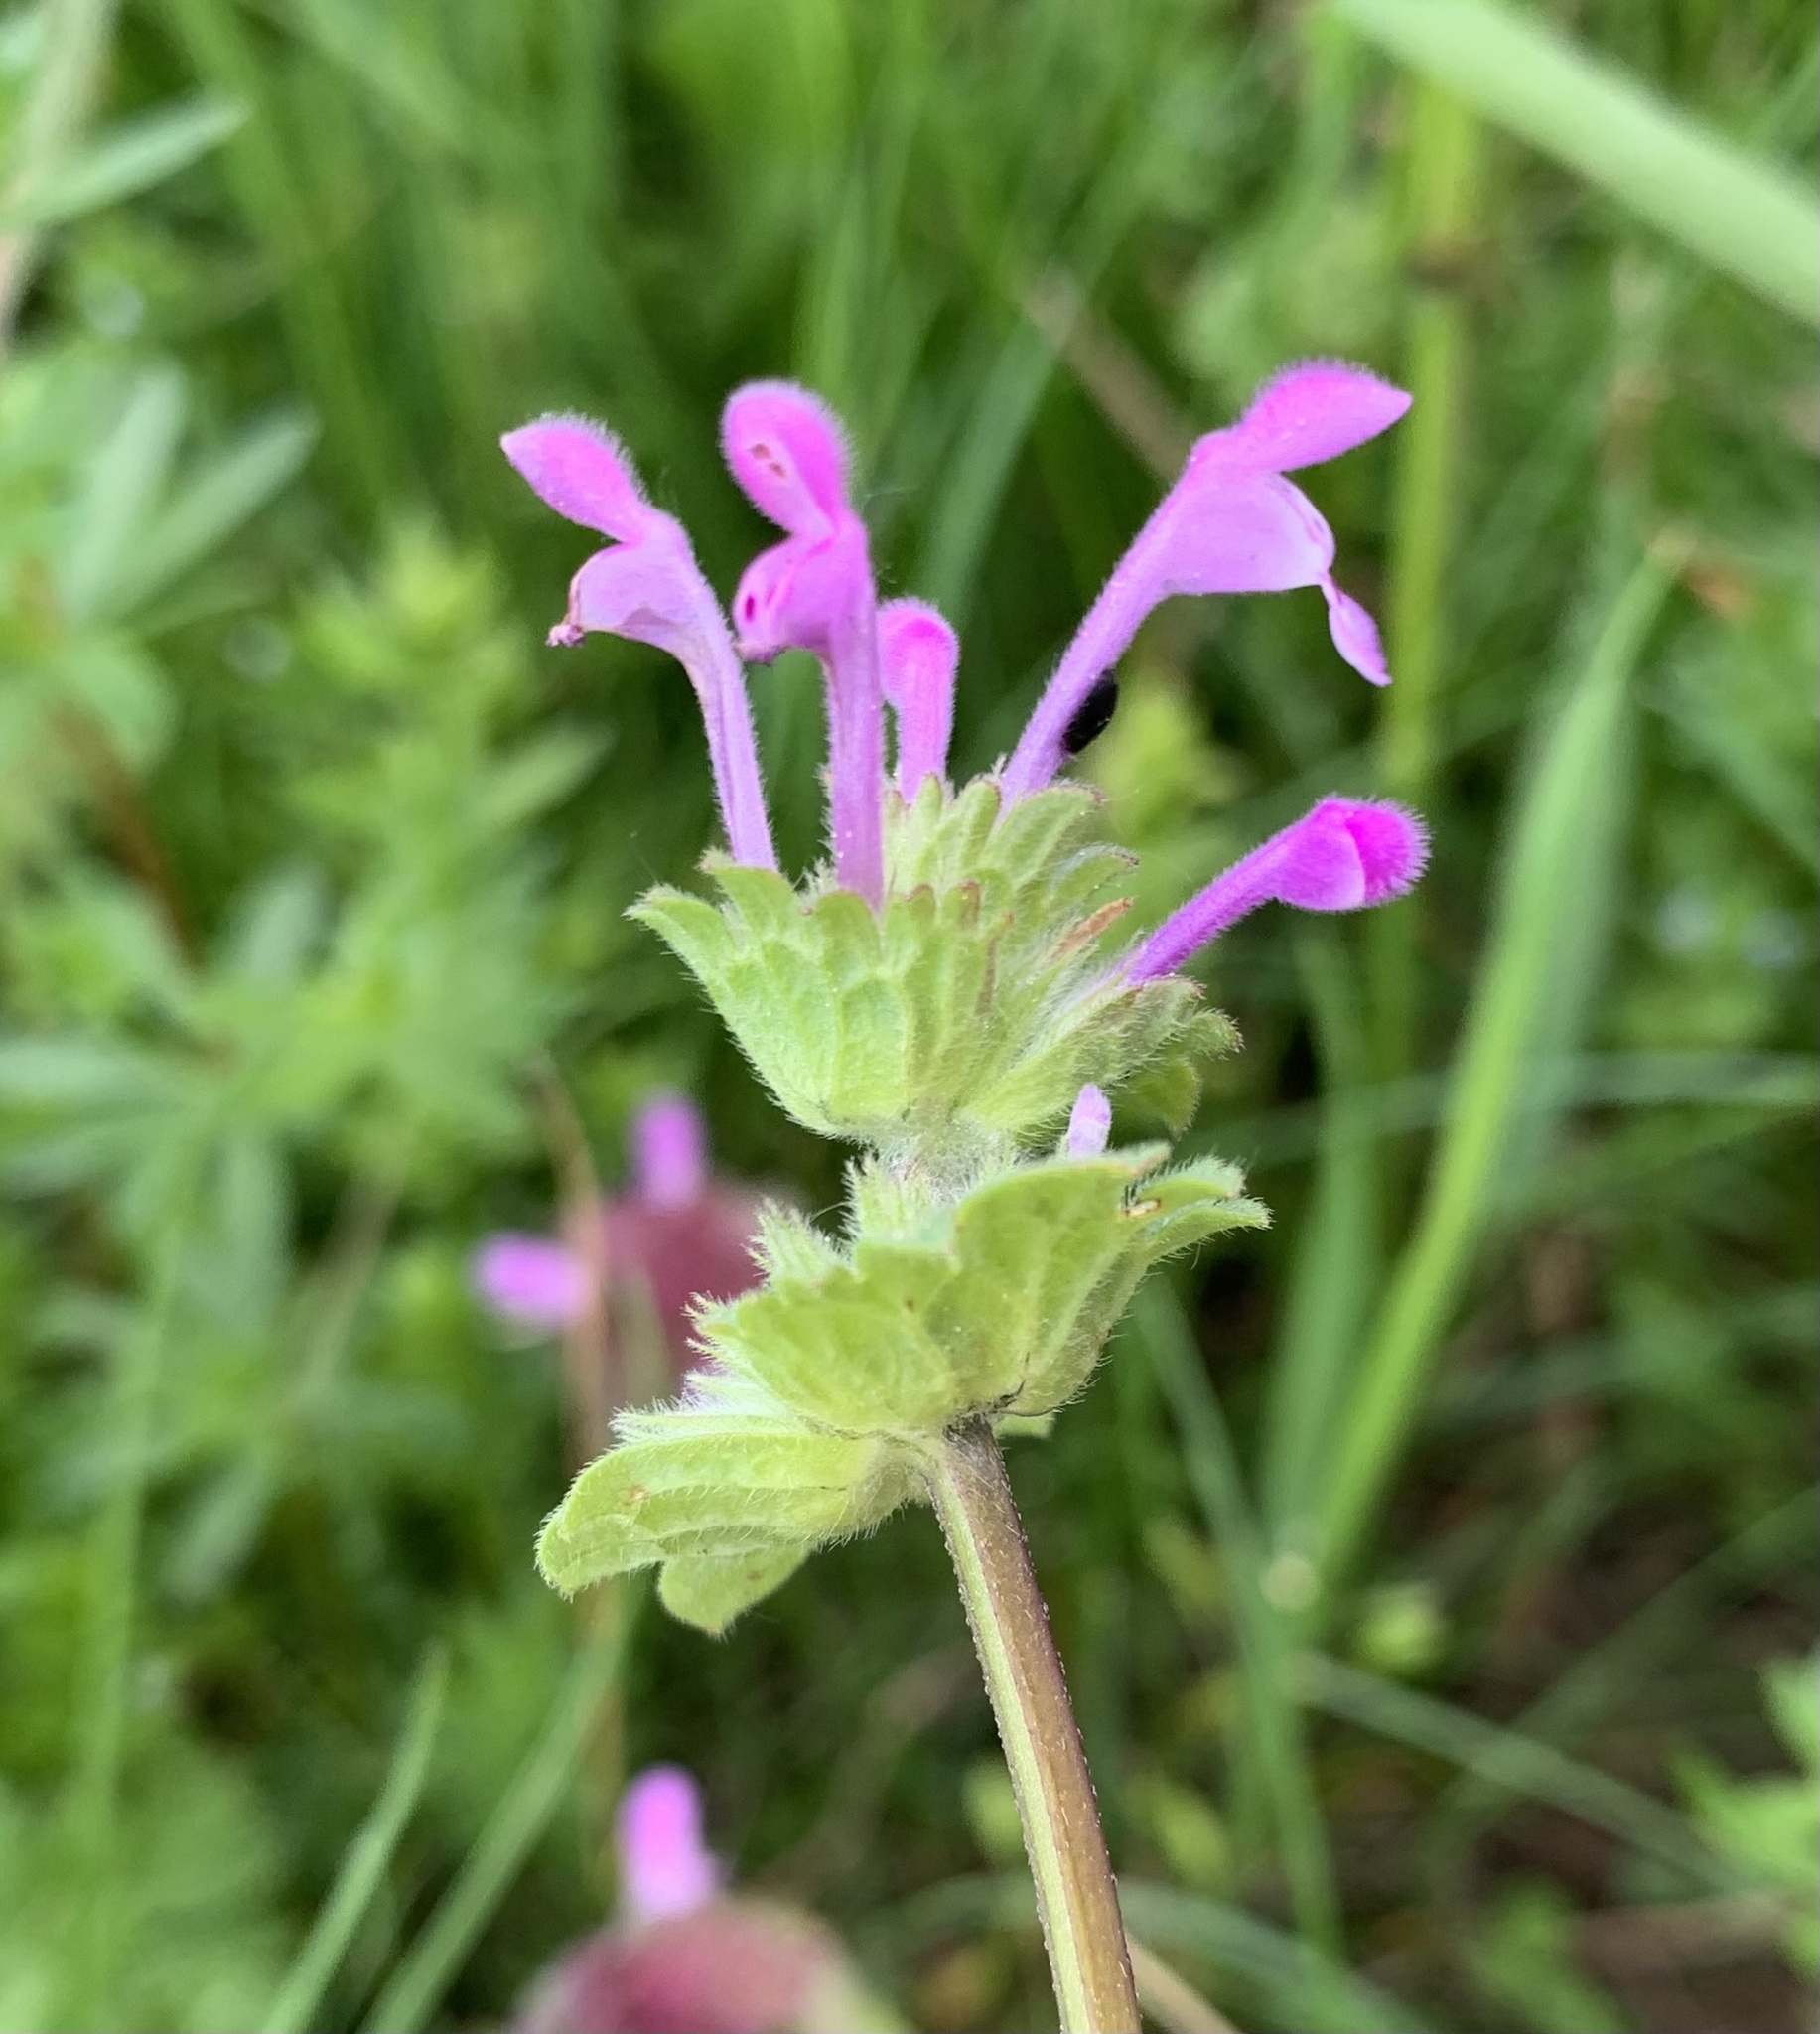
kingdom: Plantae
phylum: Tracheophyta
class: Magnoliopsida
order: Lamiales
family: Lamiaceae
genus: Lamium
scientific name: Lamium amplexicaule
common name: Henbit dead-nettle
